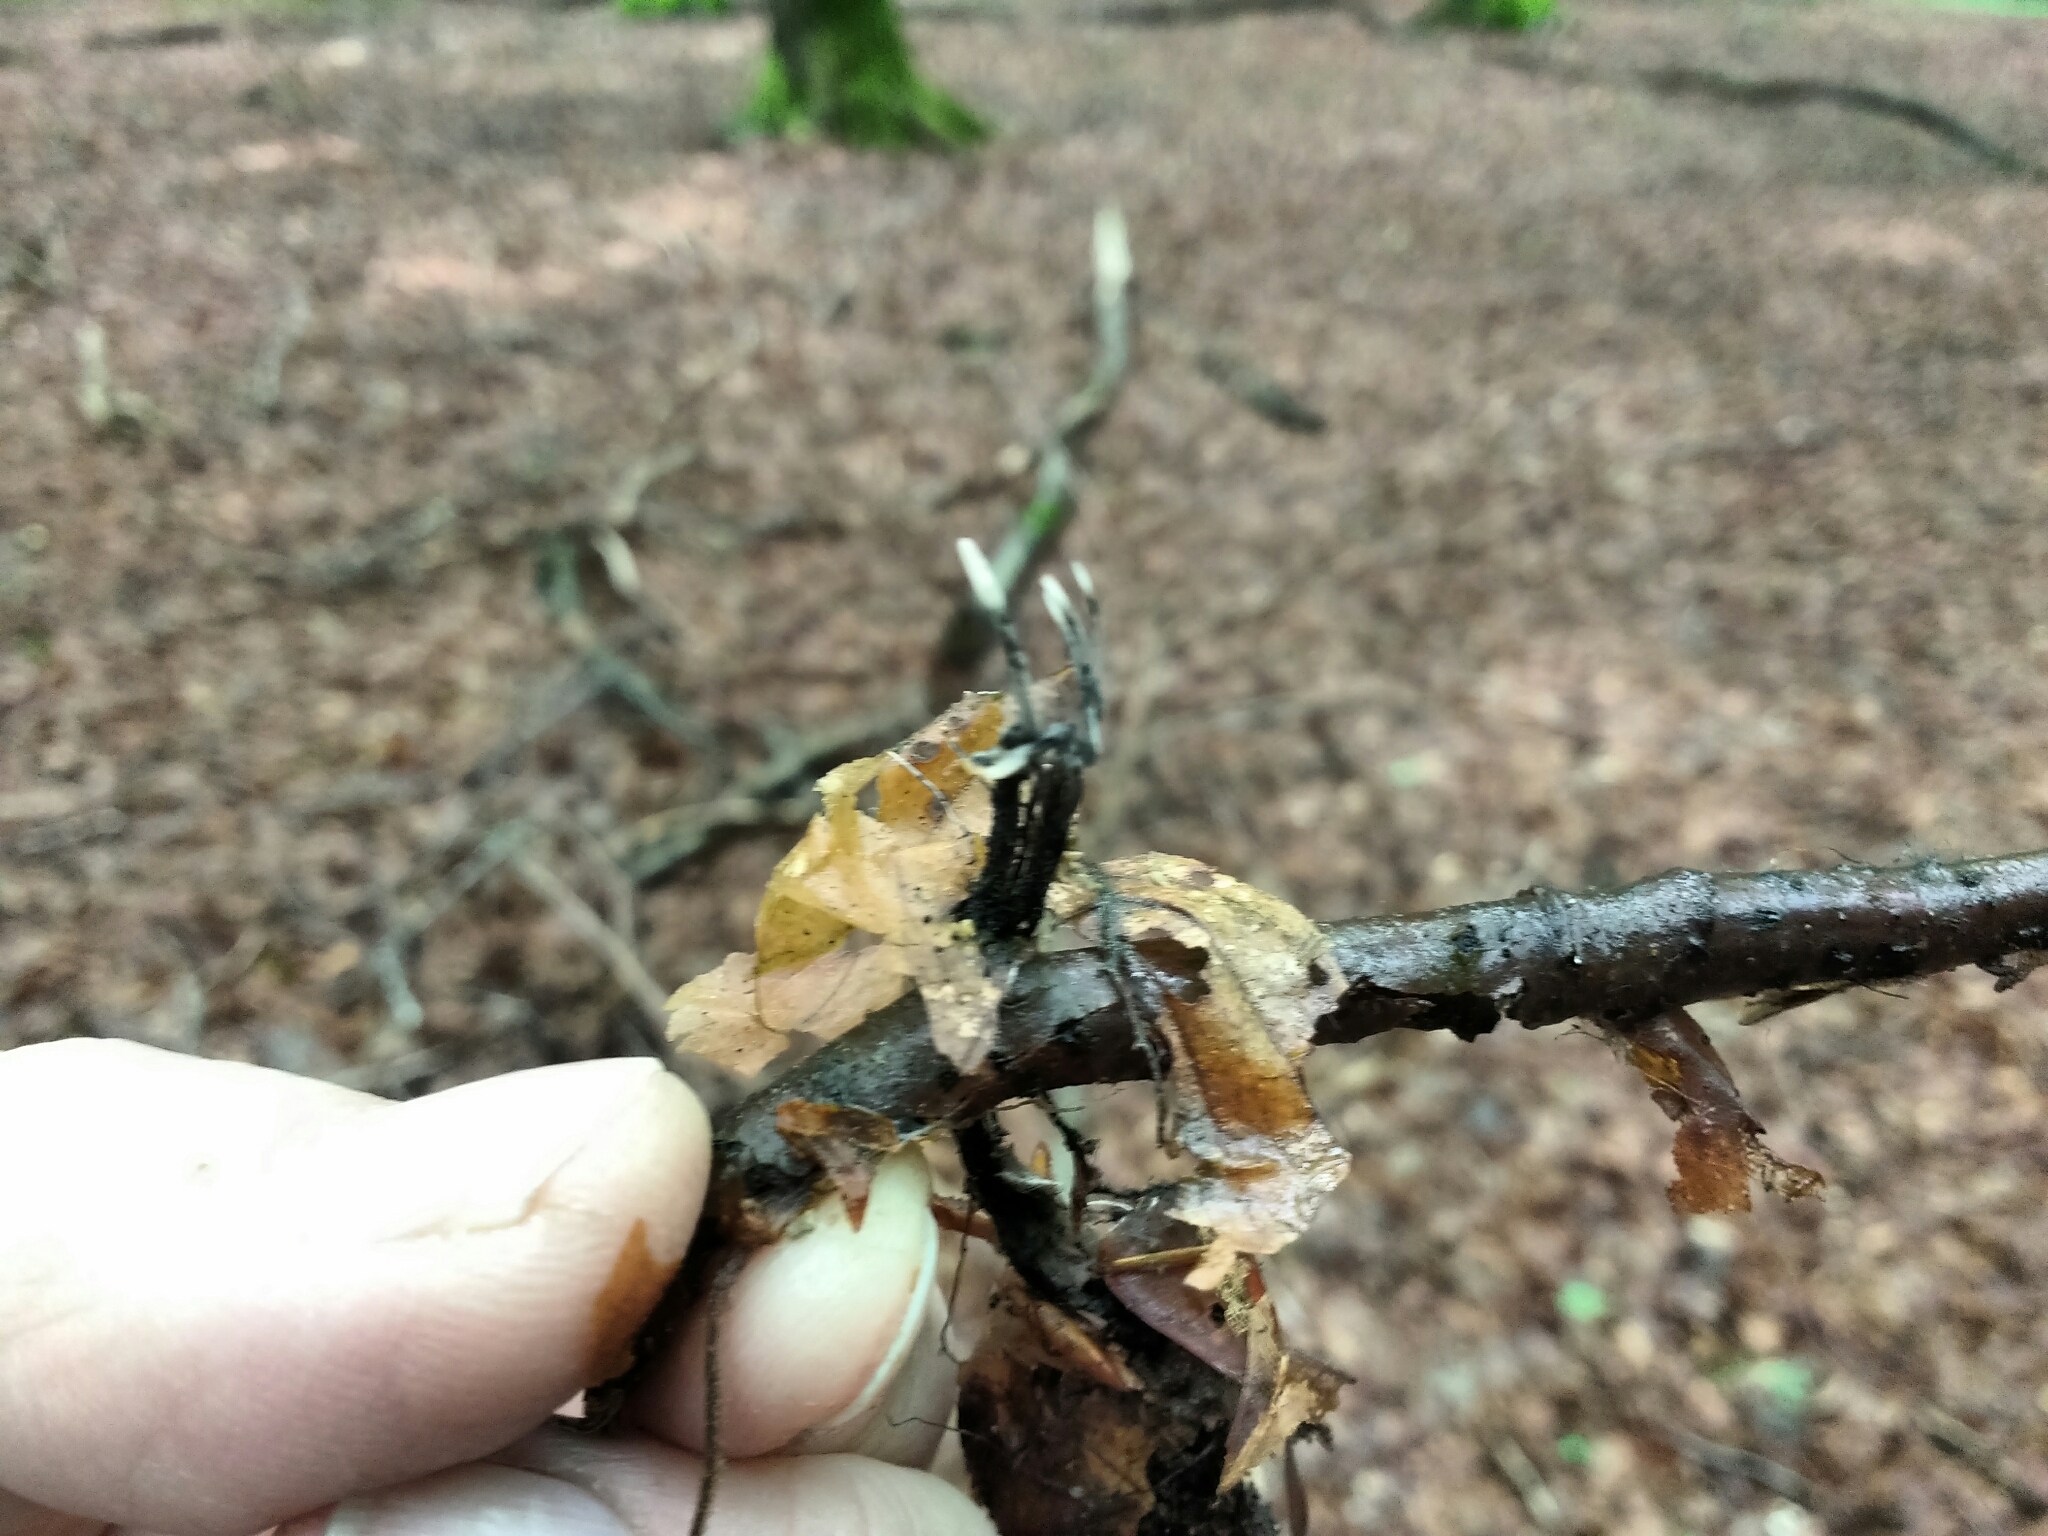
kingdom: Fungi
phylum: Ascomycota
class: Sordariomycetes
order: Xylariales
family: Xylariaceae
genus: Xylaria
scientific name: Xylaria hypoxylon
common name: Candle-snuff fungus
